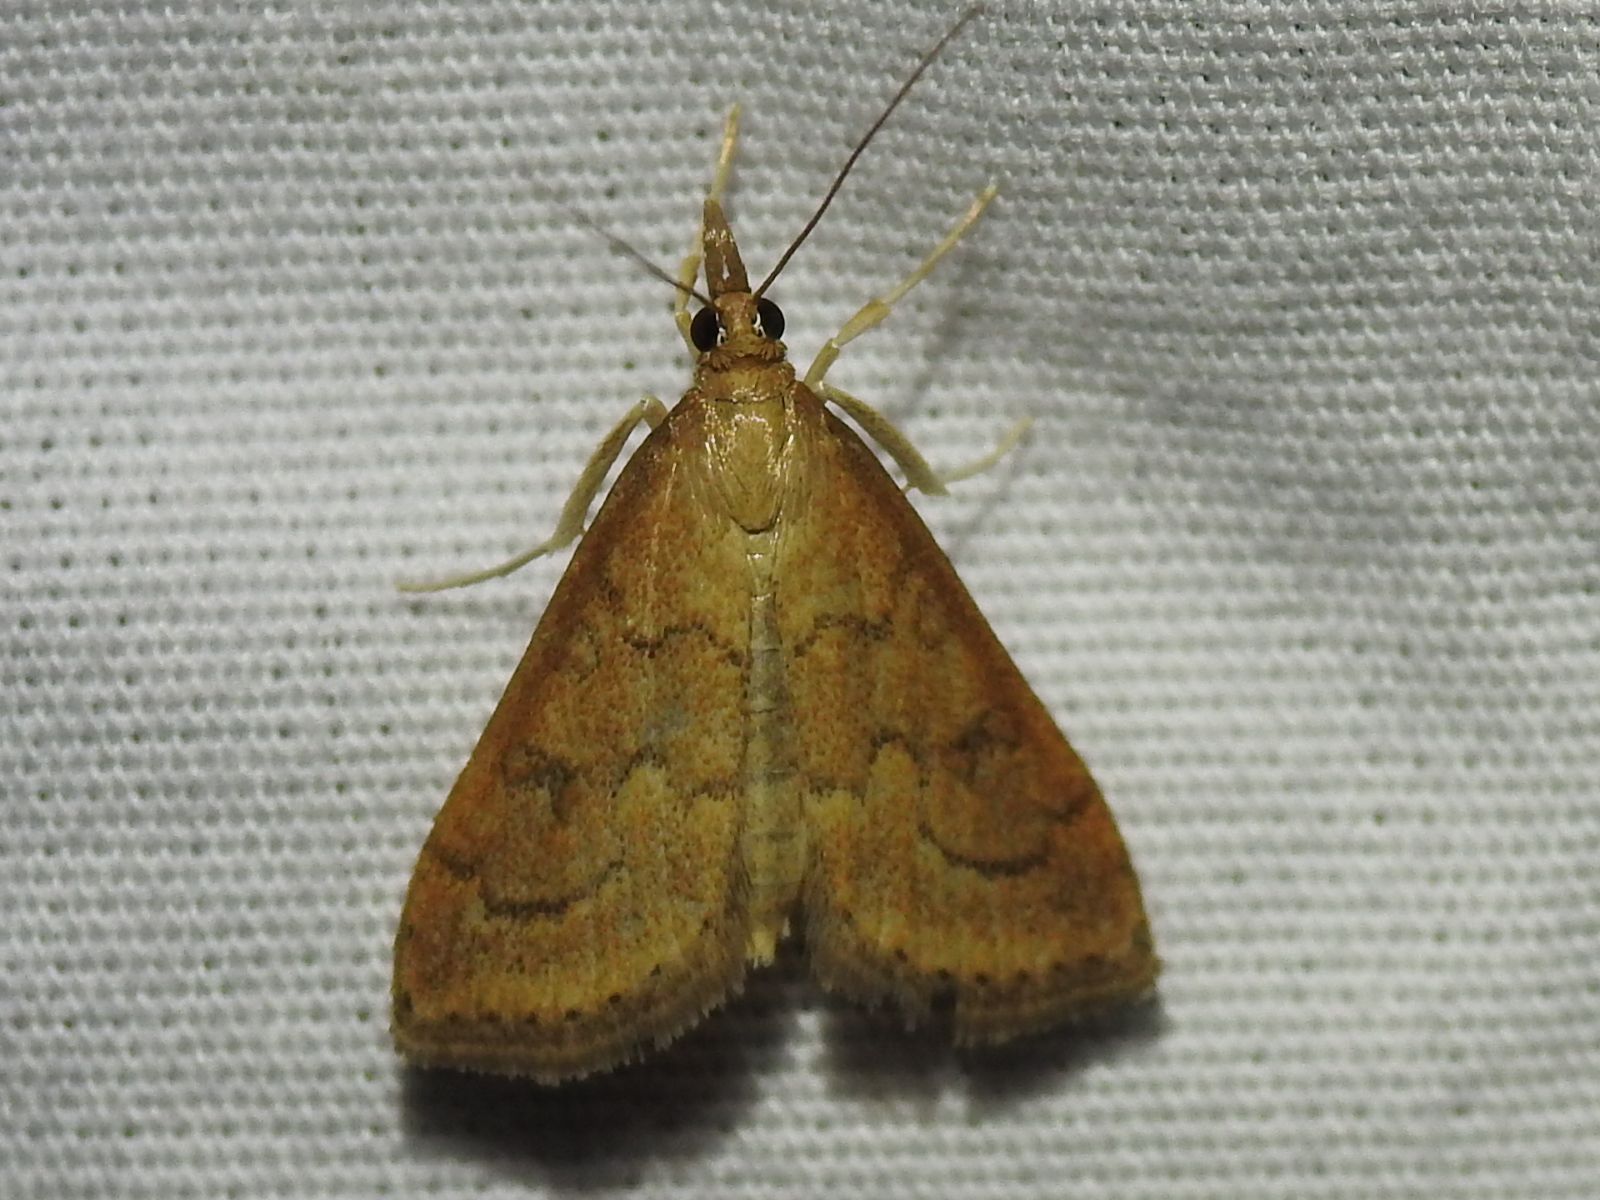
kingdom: Animalia
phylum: Arthropoda
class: Insecta
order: Lepidoptera
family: Crambidae
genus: Udea
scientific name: Udea rubigalis
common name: Celery leaftier moth
